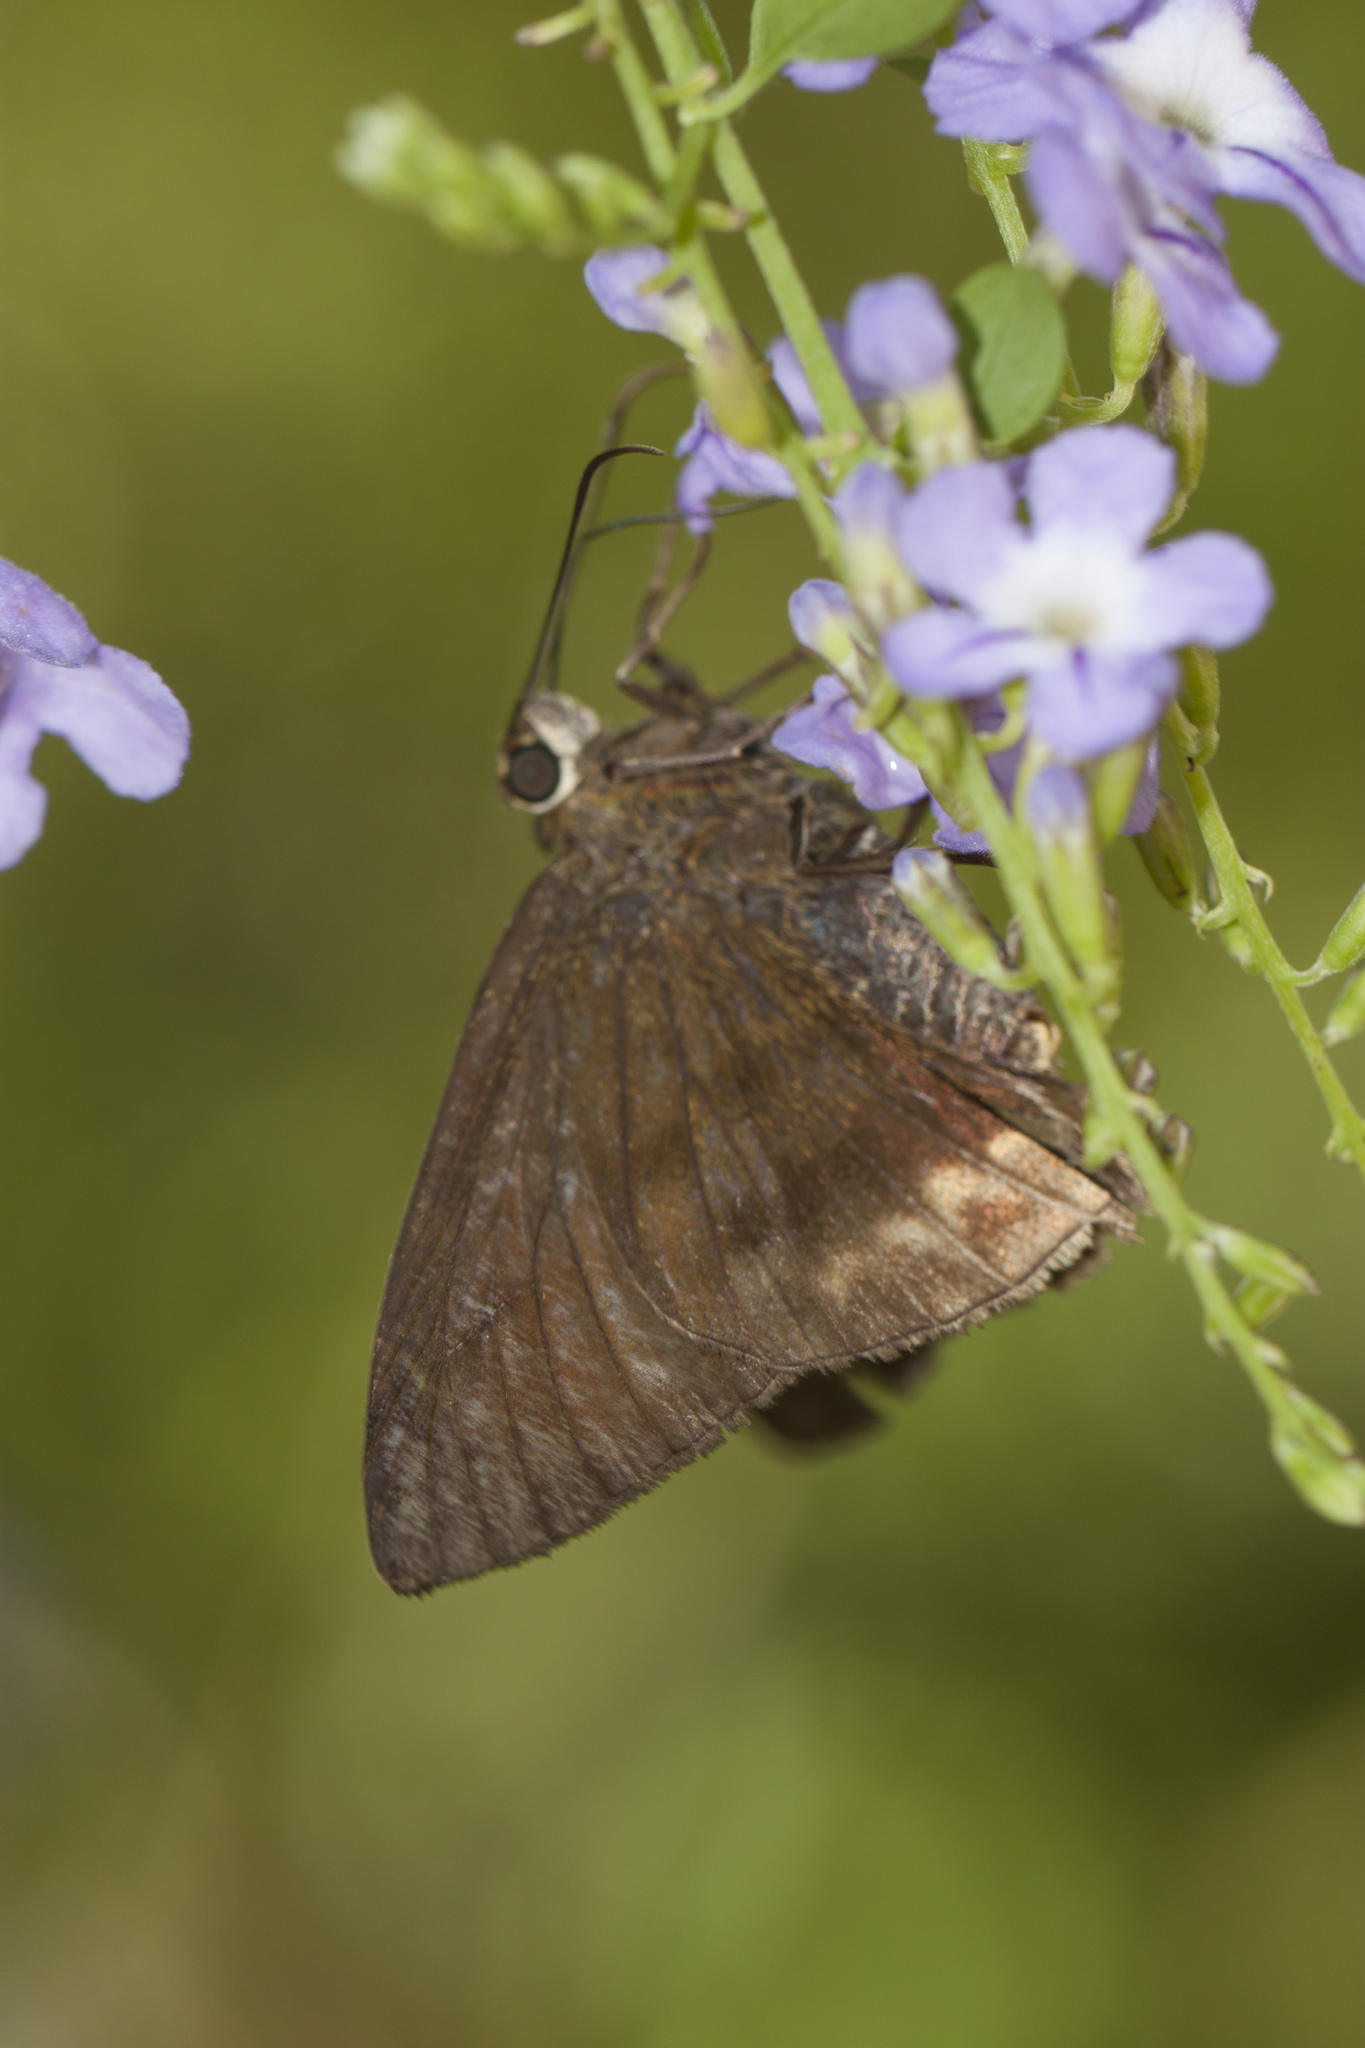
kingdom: Animalia
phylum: Arthropoda
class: Insecta
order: Lepidoptera
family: Hesperiidae
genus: Astraptes
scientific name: Astraptes anaphus
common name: Yellow-tipped flasher
